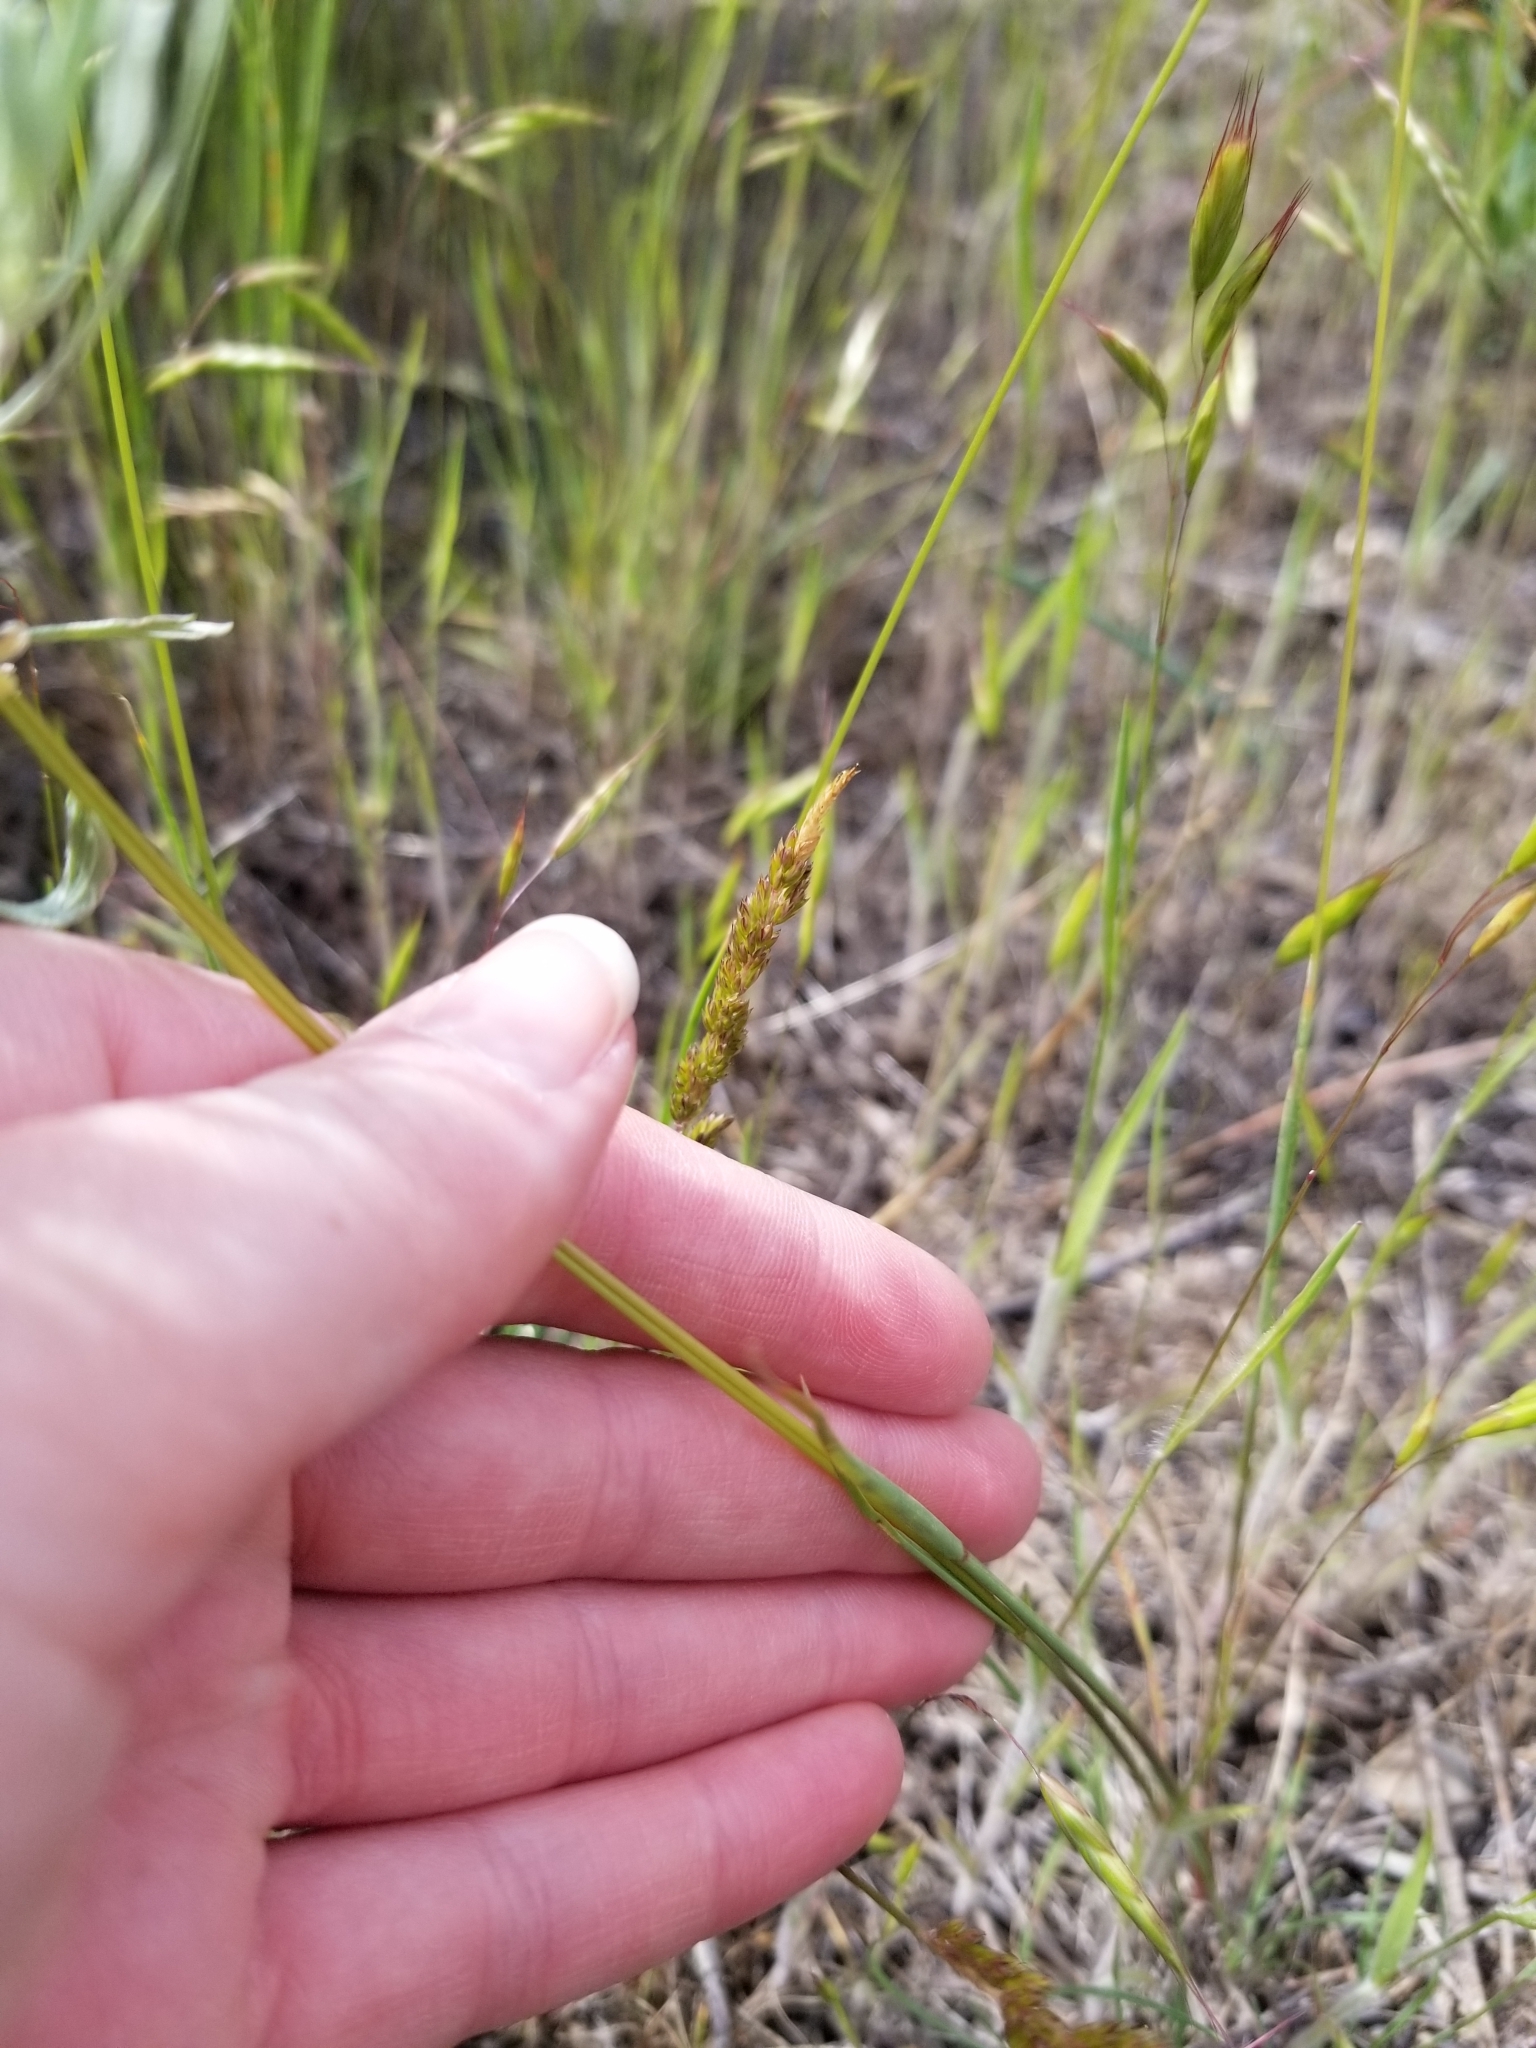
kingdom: Plantae
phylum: Tracheophyta
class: Liliopsida
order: Poales
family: Poaceae
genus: Koeleria
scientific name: Koeleria macrantha
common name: Crested hair-grass
